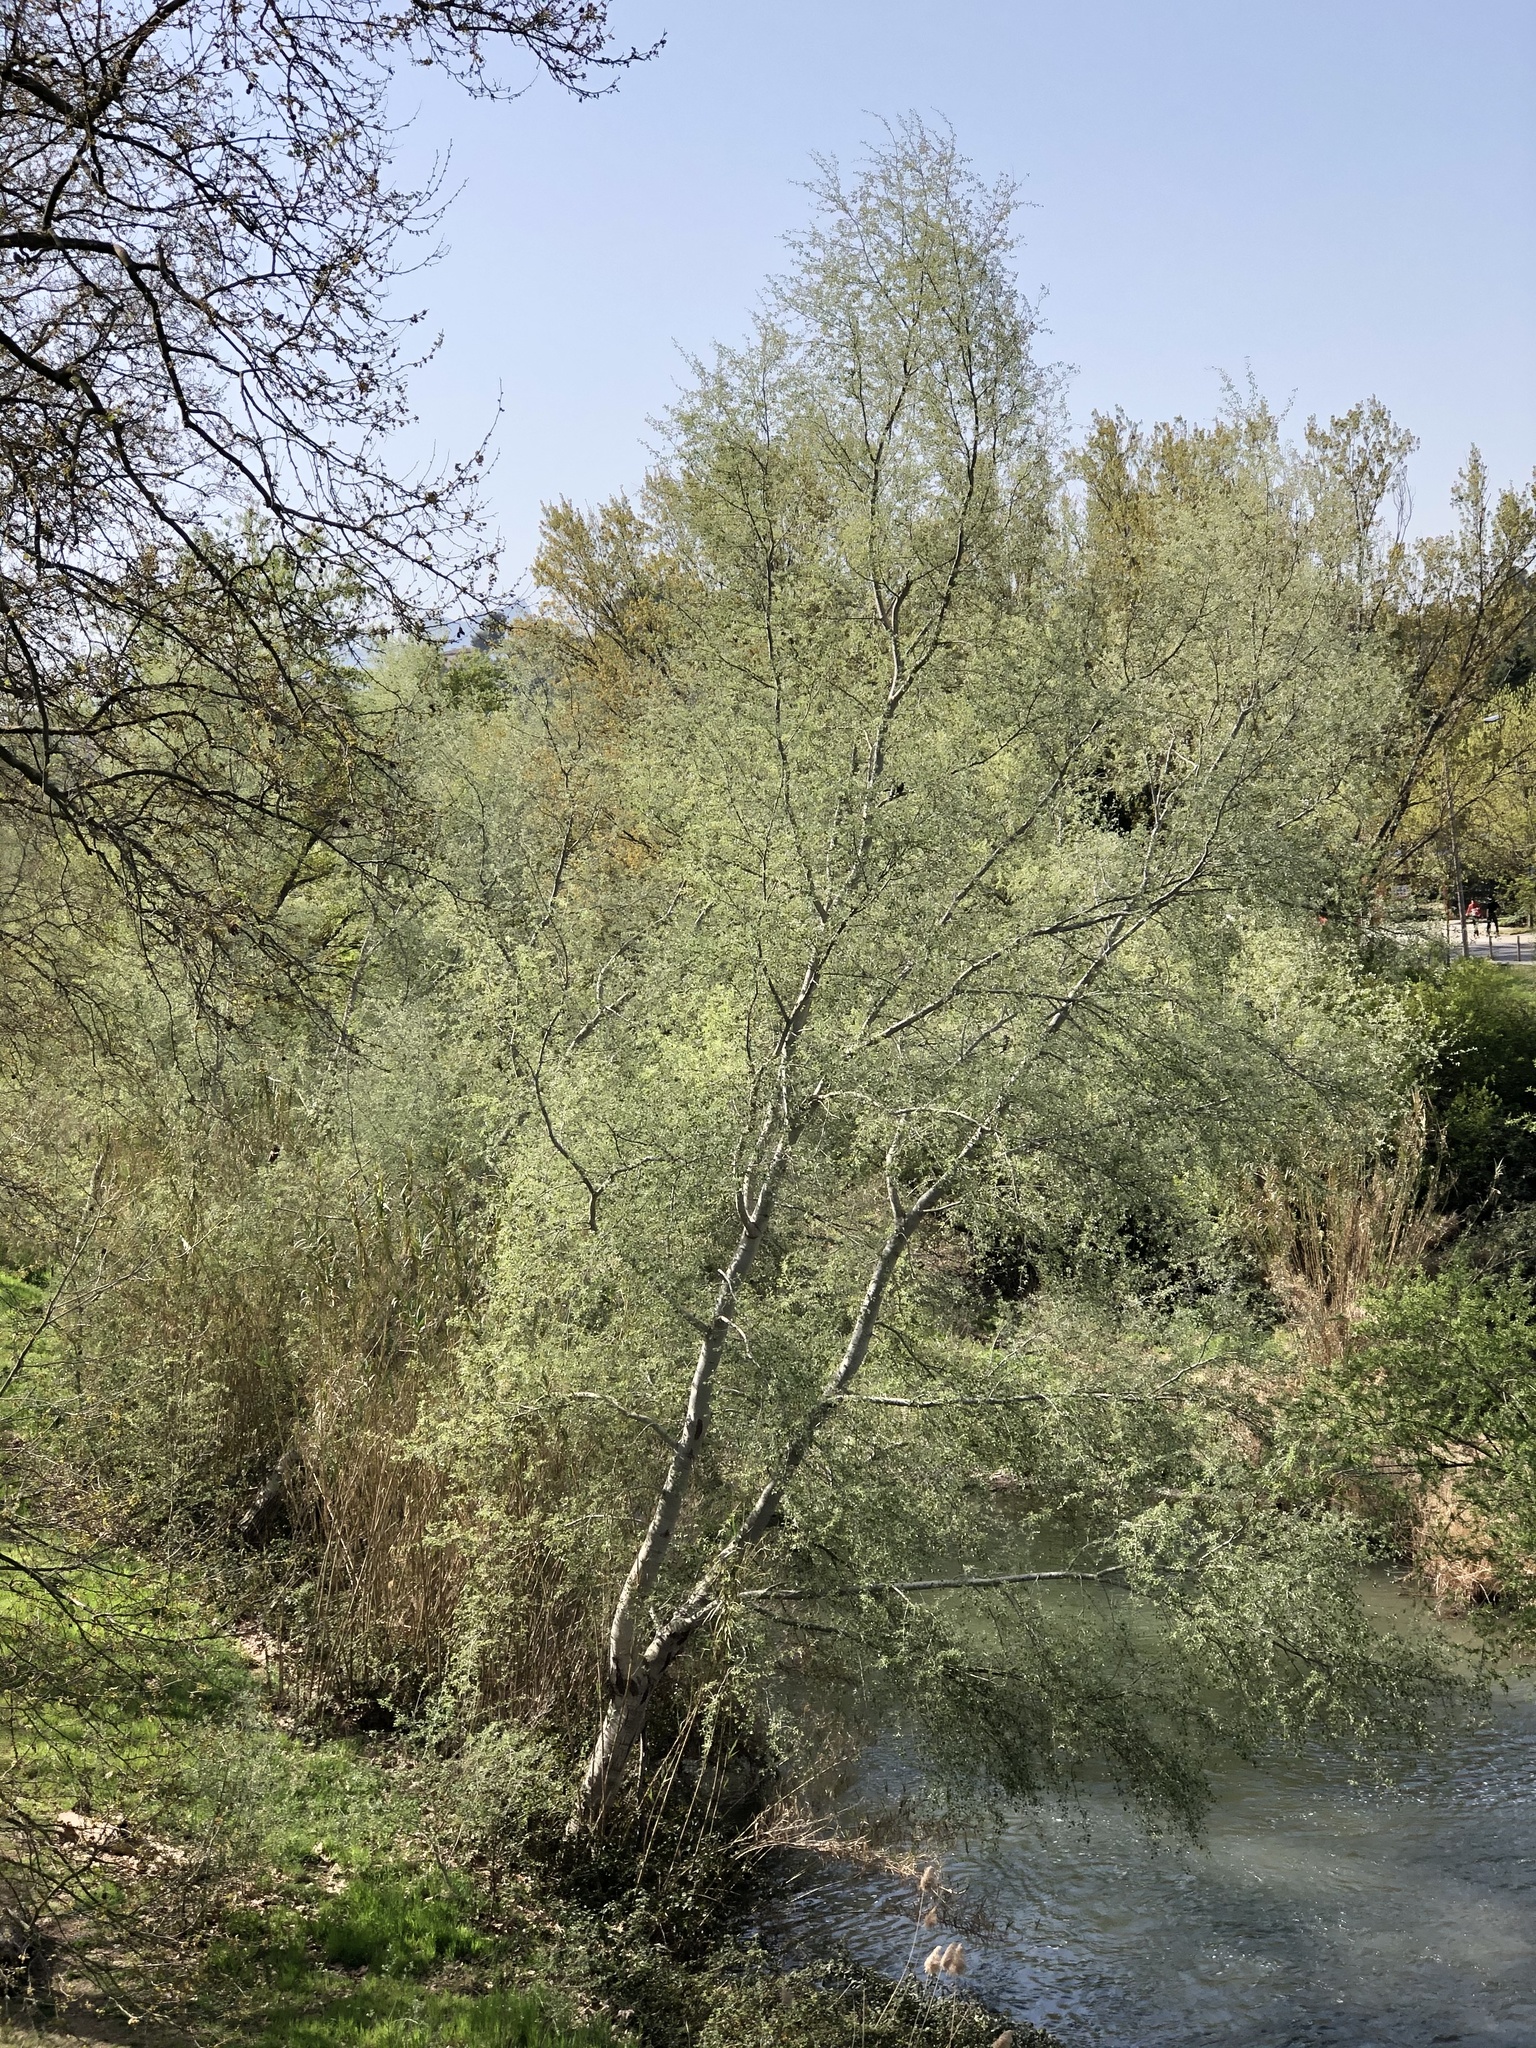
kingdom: Plantae
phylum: Tracheophyta
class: Magnoliopsida
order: Malpighiales
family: Salicaceae
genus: Populus
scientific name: Populus alba
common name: White poplar
